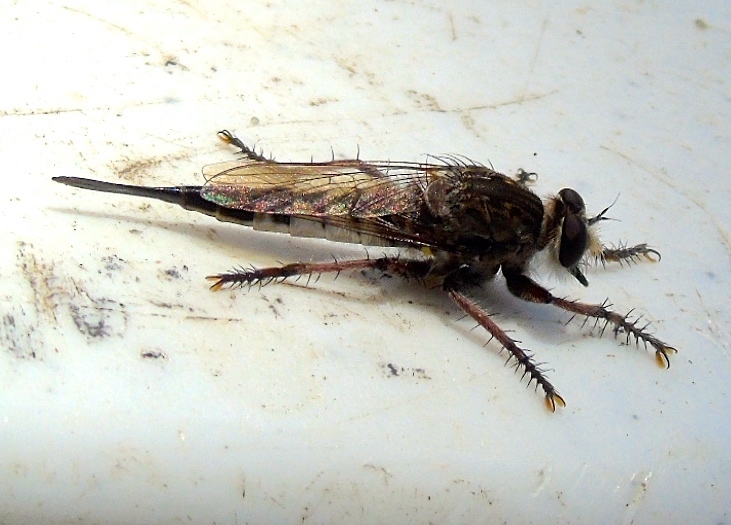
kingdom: Animalia
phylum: Arthropoda
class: Insecta
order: Diptera
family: Asilidae
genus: Efferia
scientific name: Efferia
